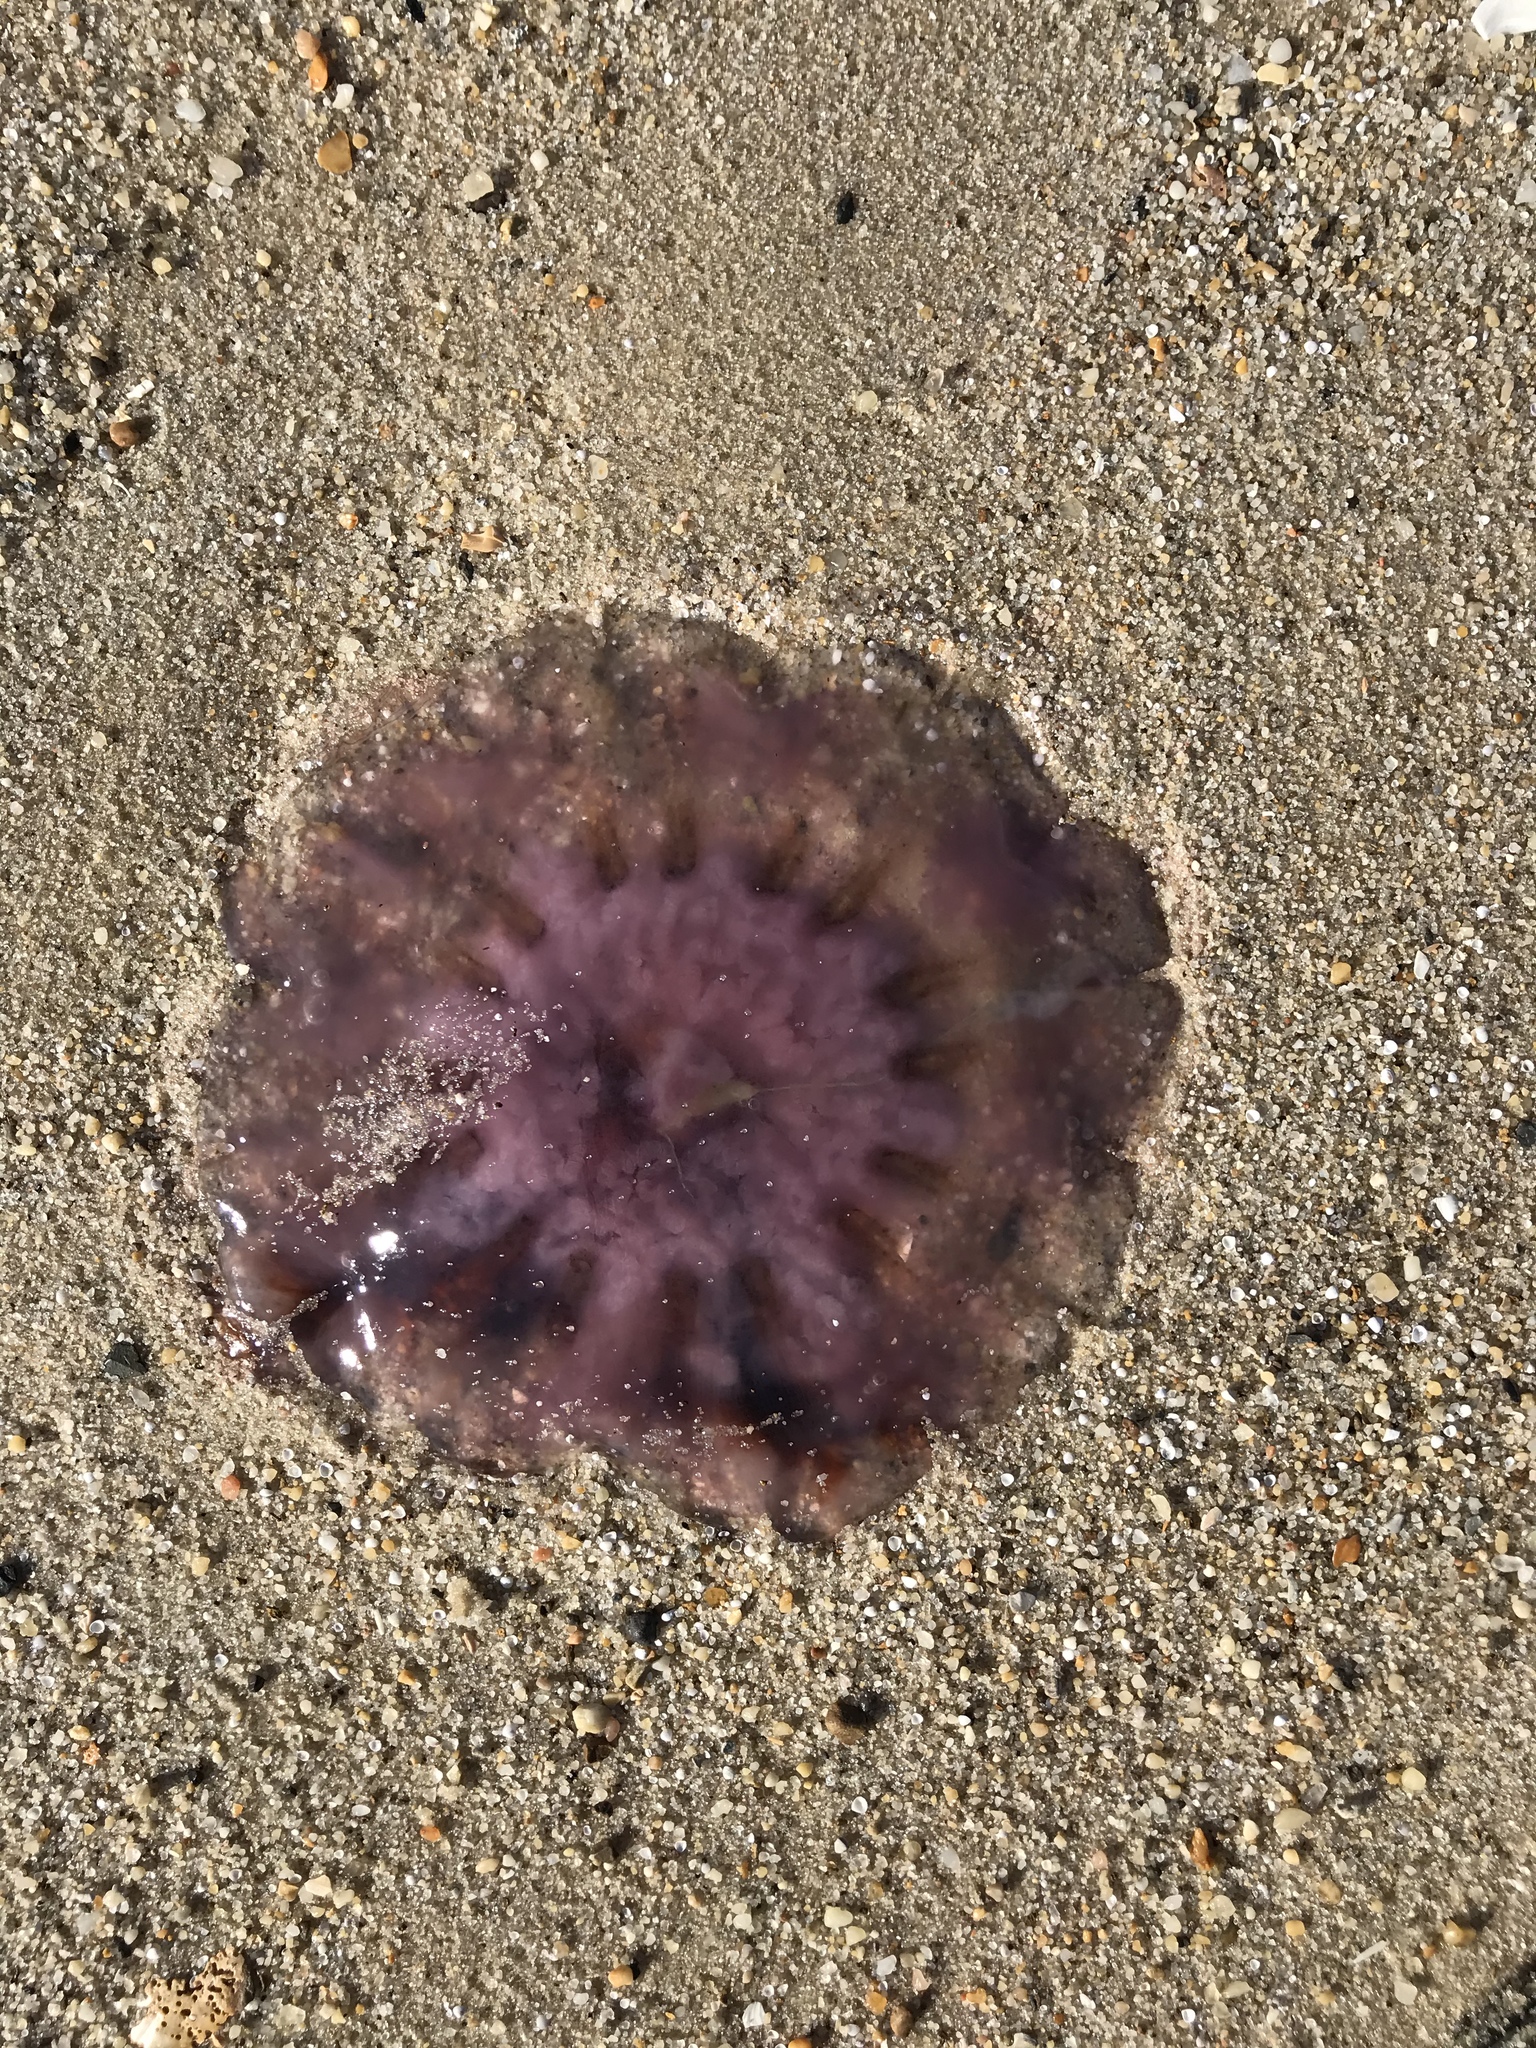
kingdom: Animalia
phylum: Cnidaria
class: Scyphozoa
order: Semaeostomeae
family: Cyaneidae
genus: Cyanea
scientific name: Cyanea versicolor
